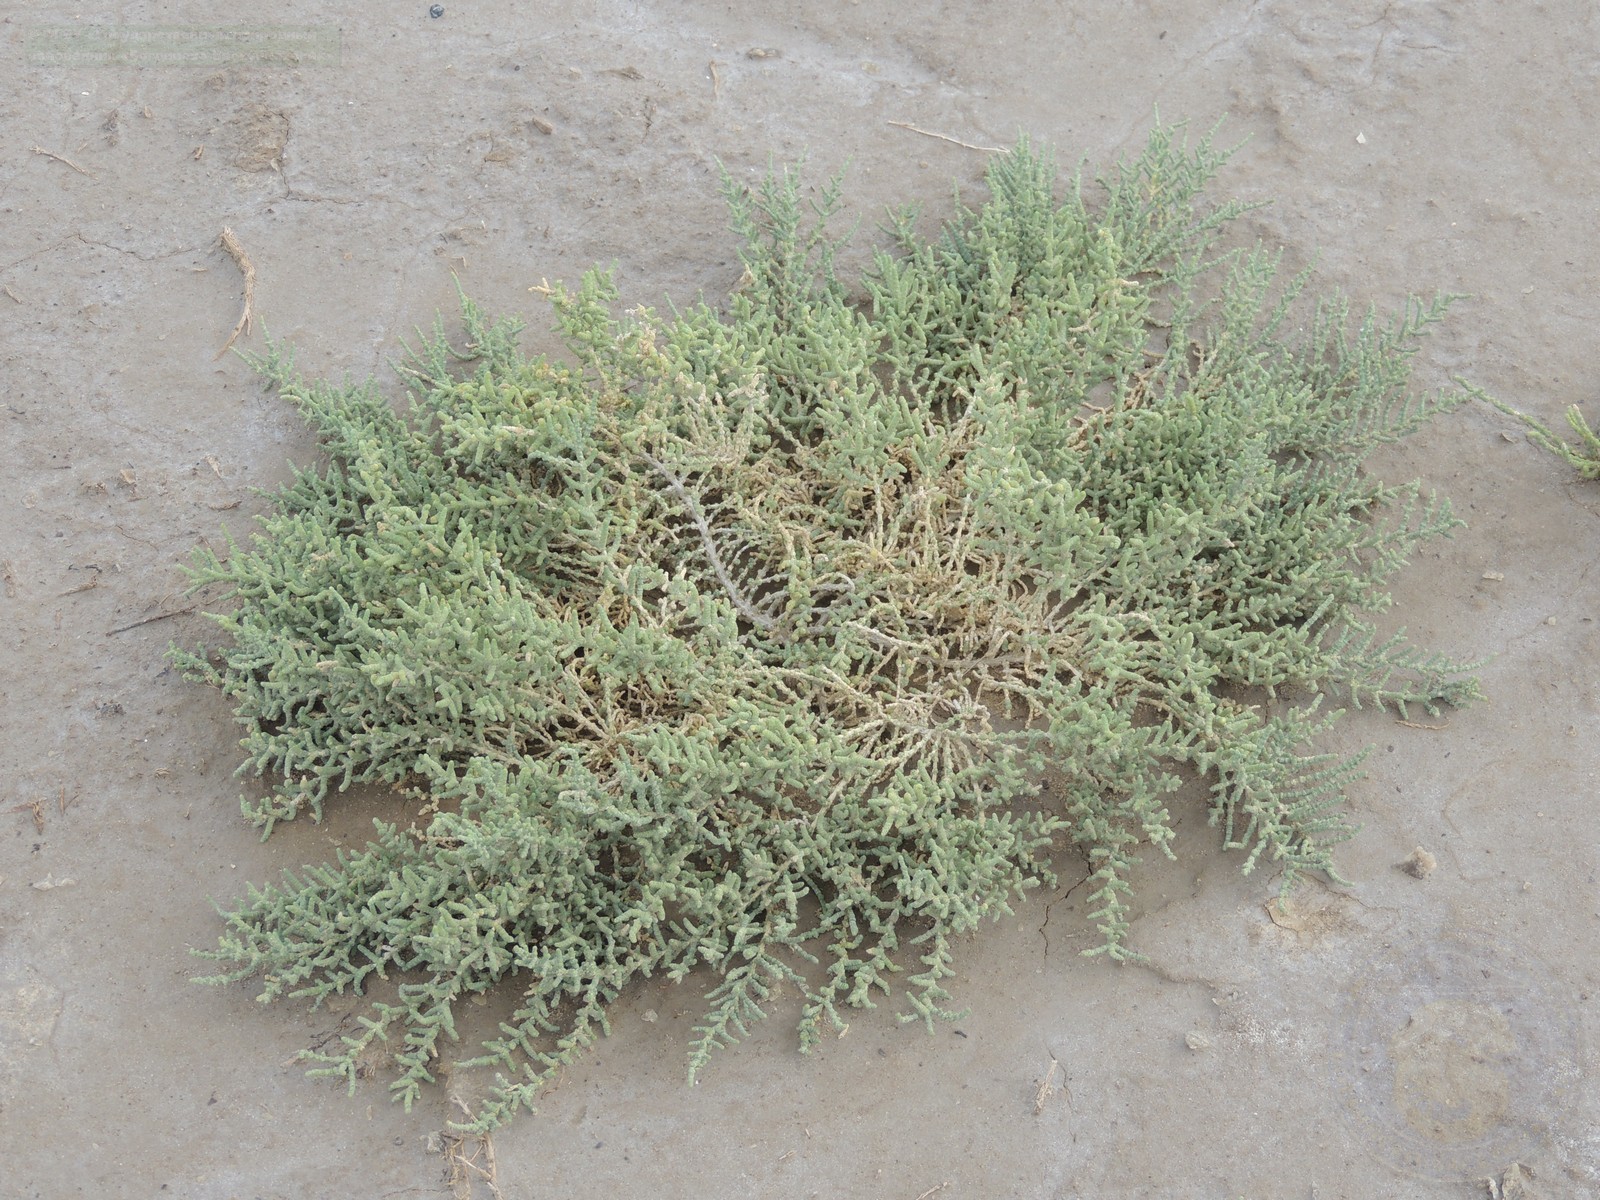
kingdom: Plantae
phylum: Tracheophyta
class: Magnoliopsida
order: Caryophyllales
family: Amaranthaceae
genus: Halocnemum
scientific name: Halocnemum strobilaceum
